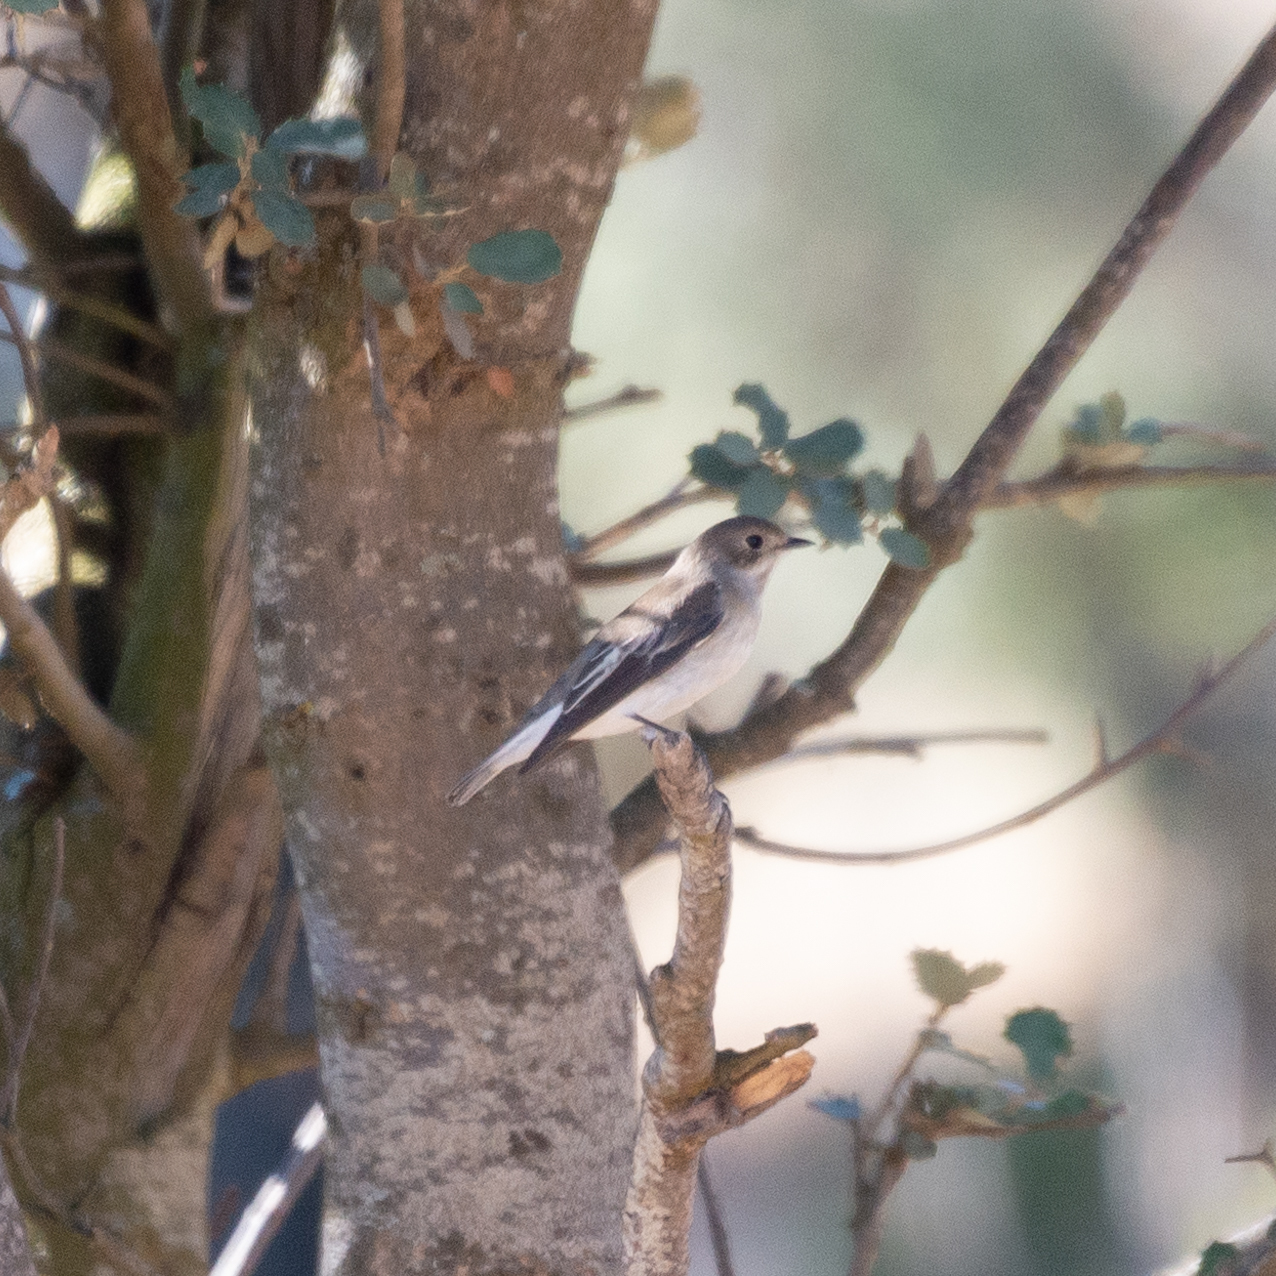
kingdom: Animalia
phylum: Chordata
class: Aves
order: Passeriformes
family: Muscicapidae
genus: Ficedula
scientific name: Ficedula hypoleuca
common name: European pied flycatcher
